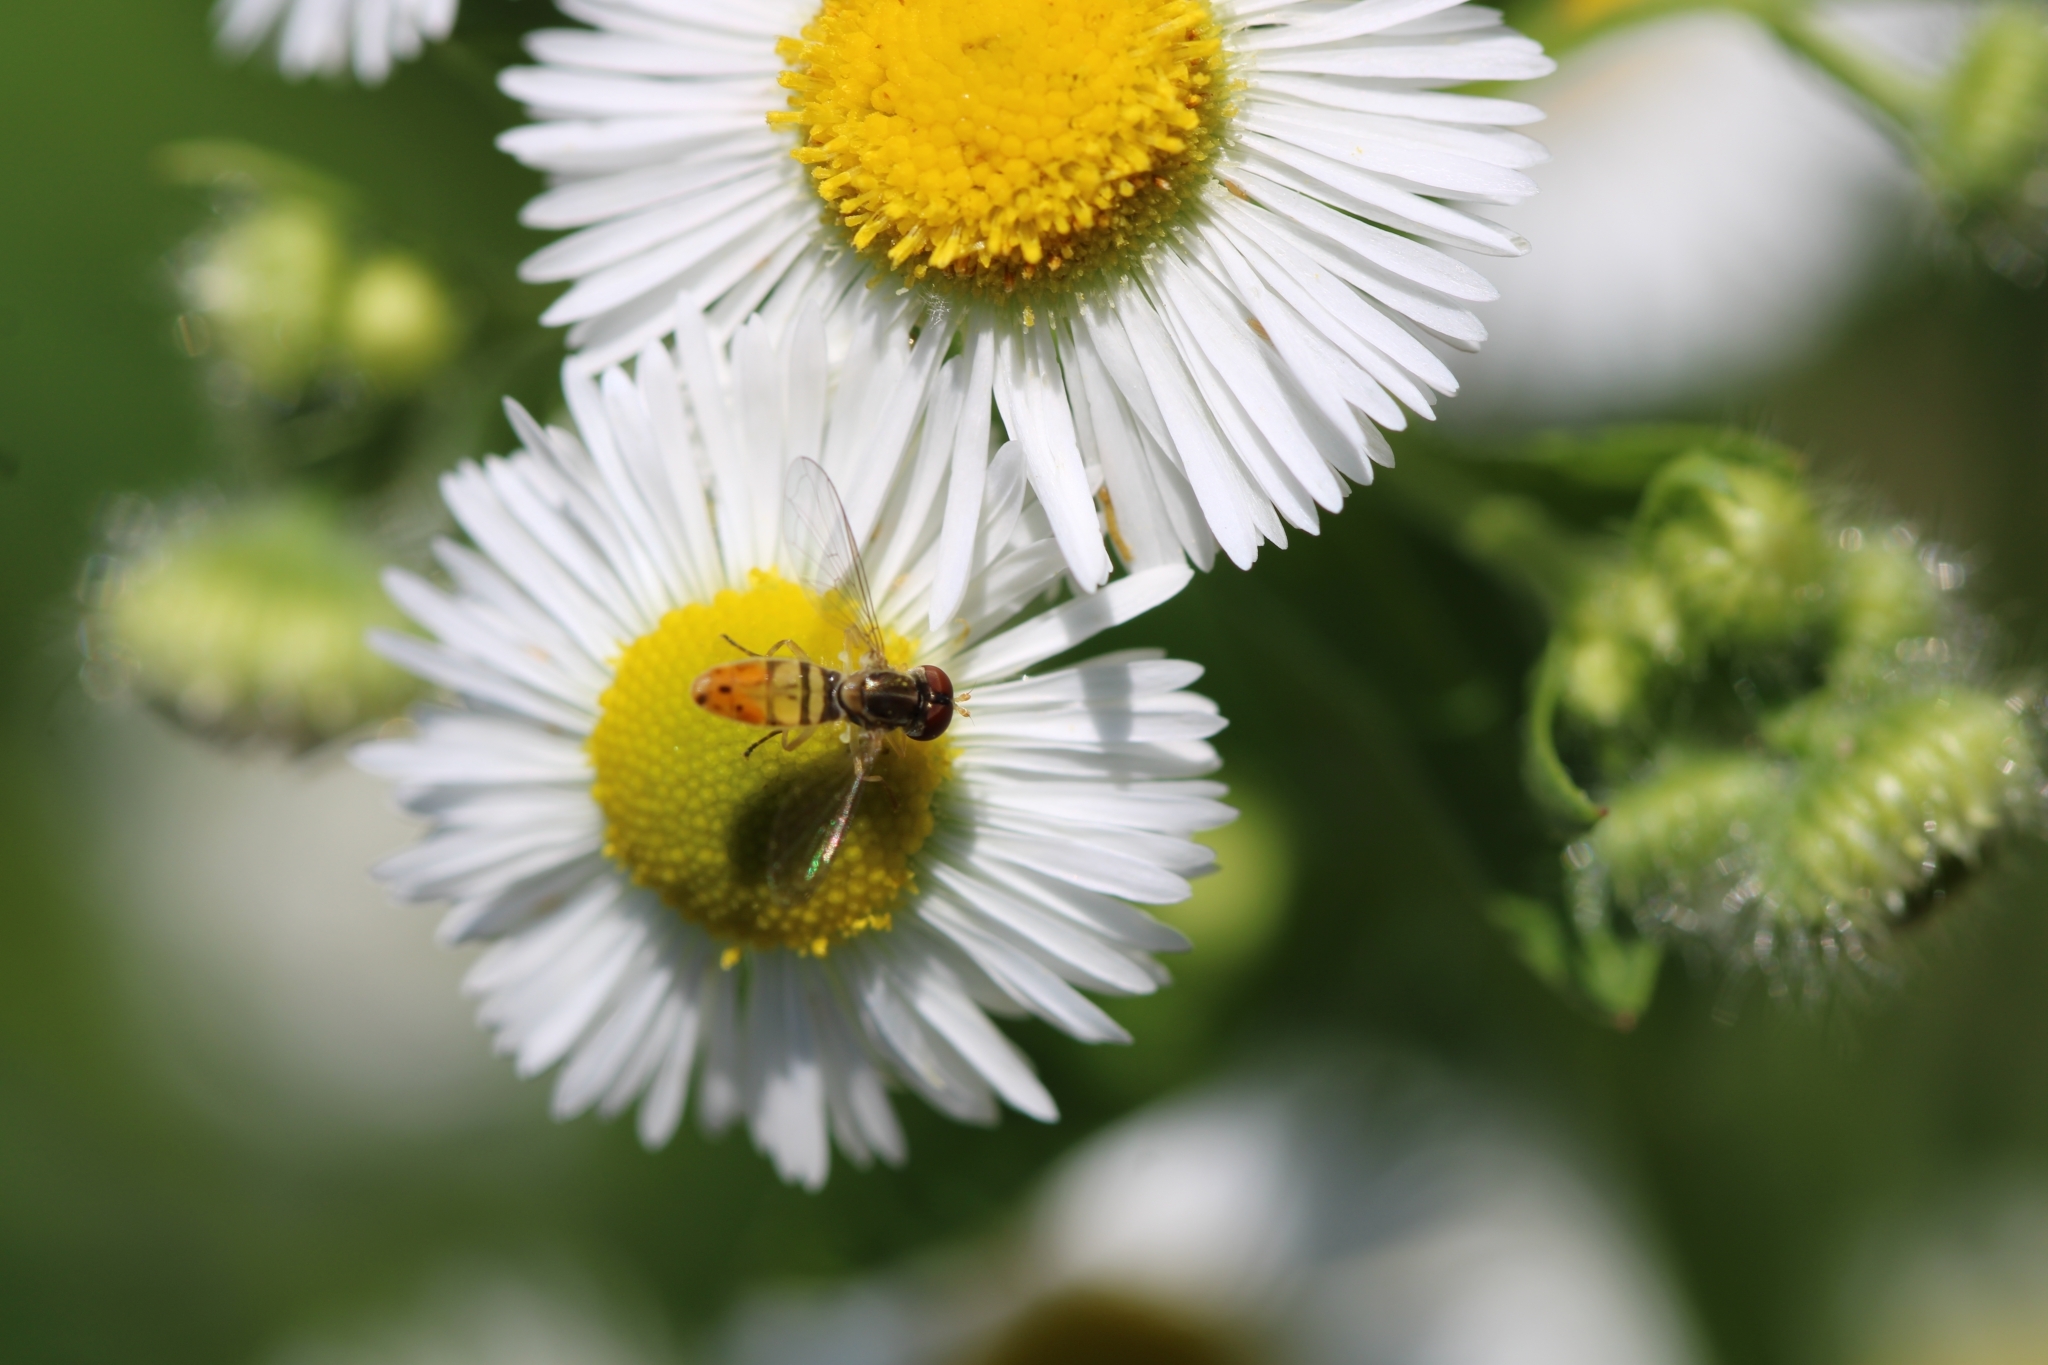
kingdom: Animalia
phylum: Arthropoda
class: Insecta
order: Diptera
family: Syrphidae
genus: Toxomerus
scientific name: Toxomerus marginatus
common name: Syrphid fly
